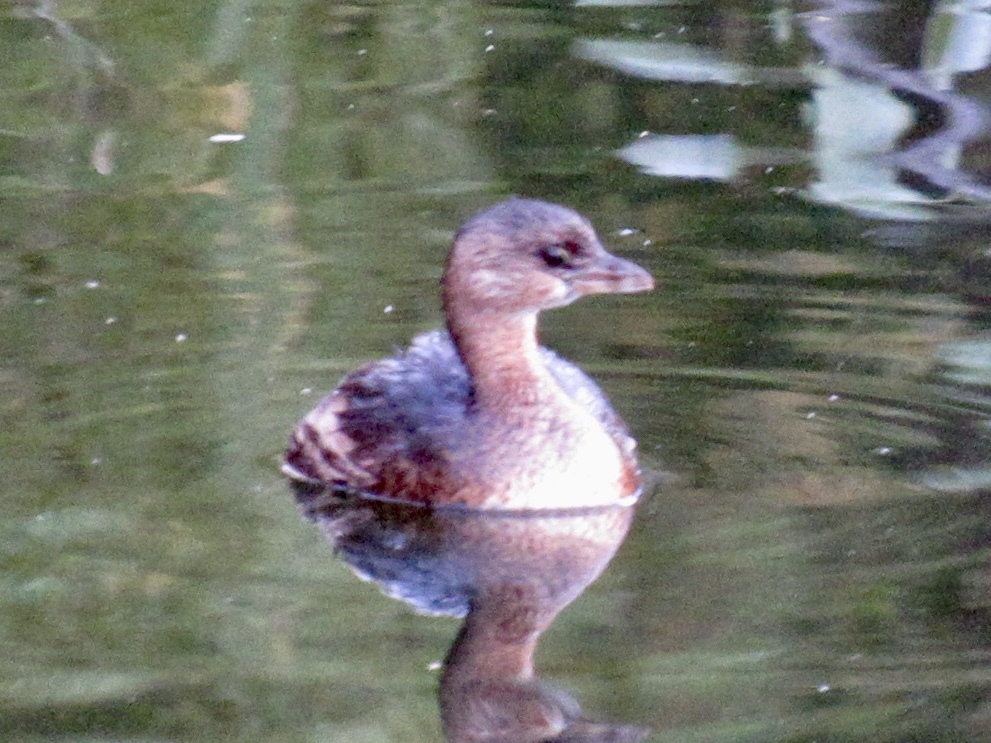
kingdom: Animalia
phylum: Chordata
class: Aves
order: Podicipediformes
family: Podicipedidae
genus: Podilymbus
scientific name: Podilymbus podiceps
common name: Pied-billed grebe
